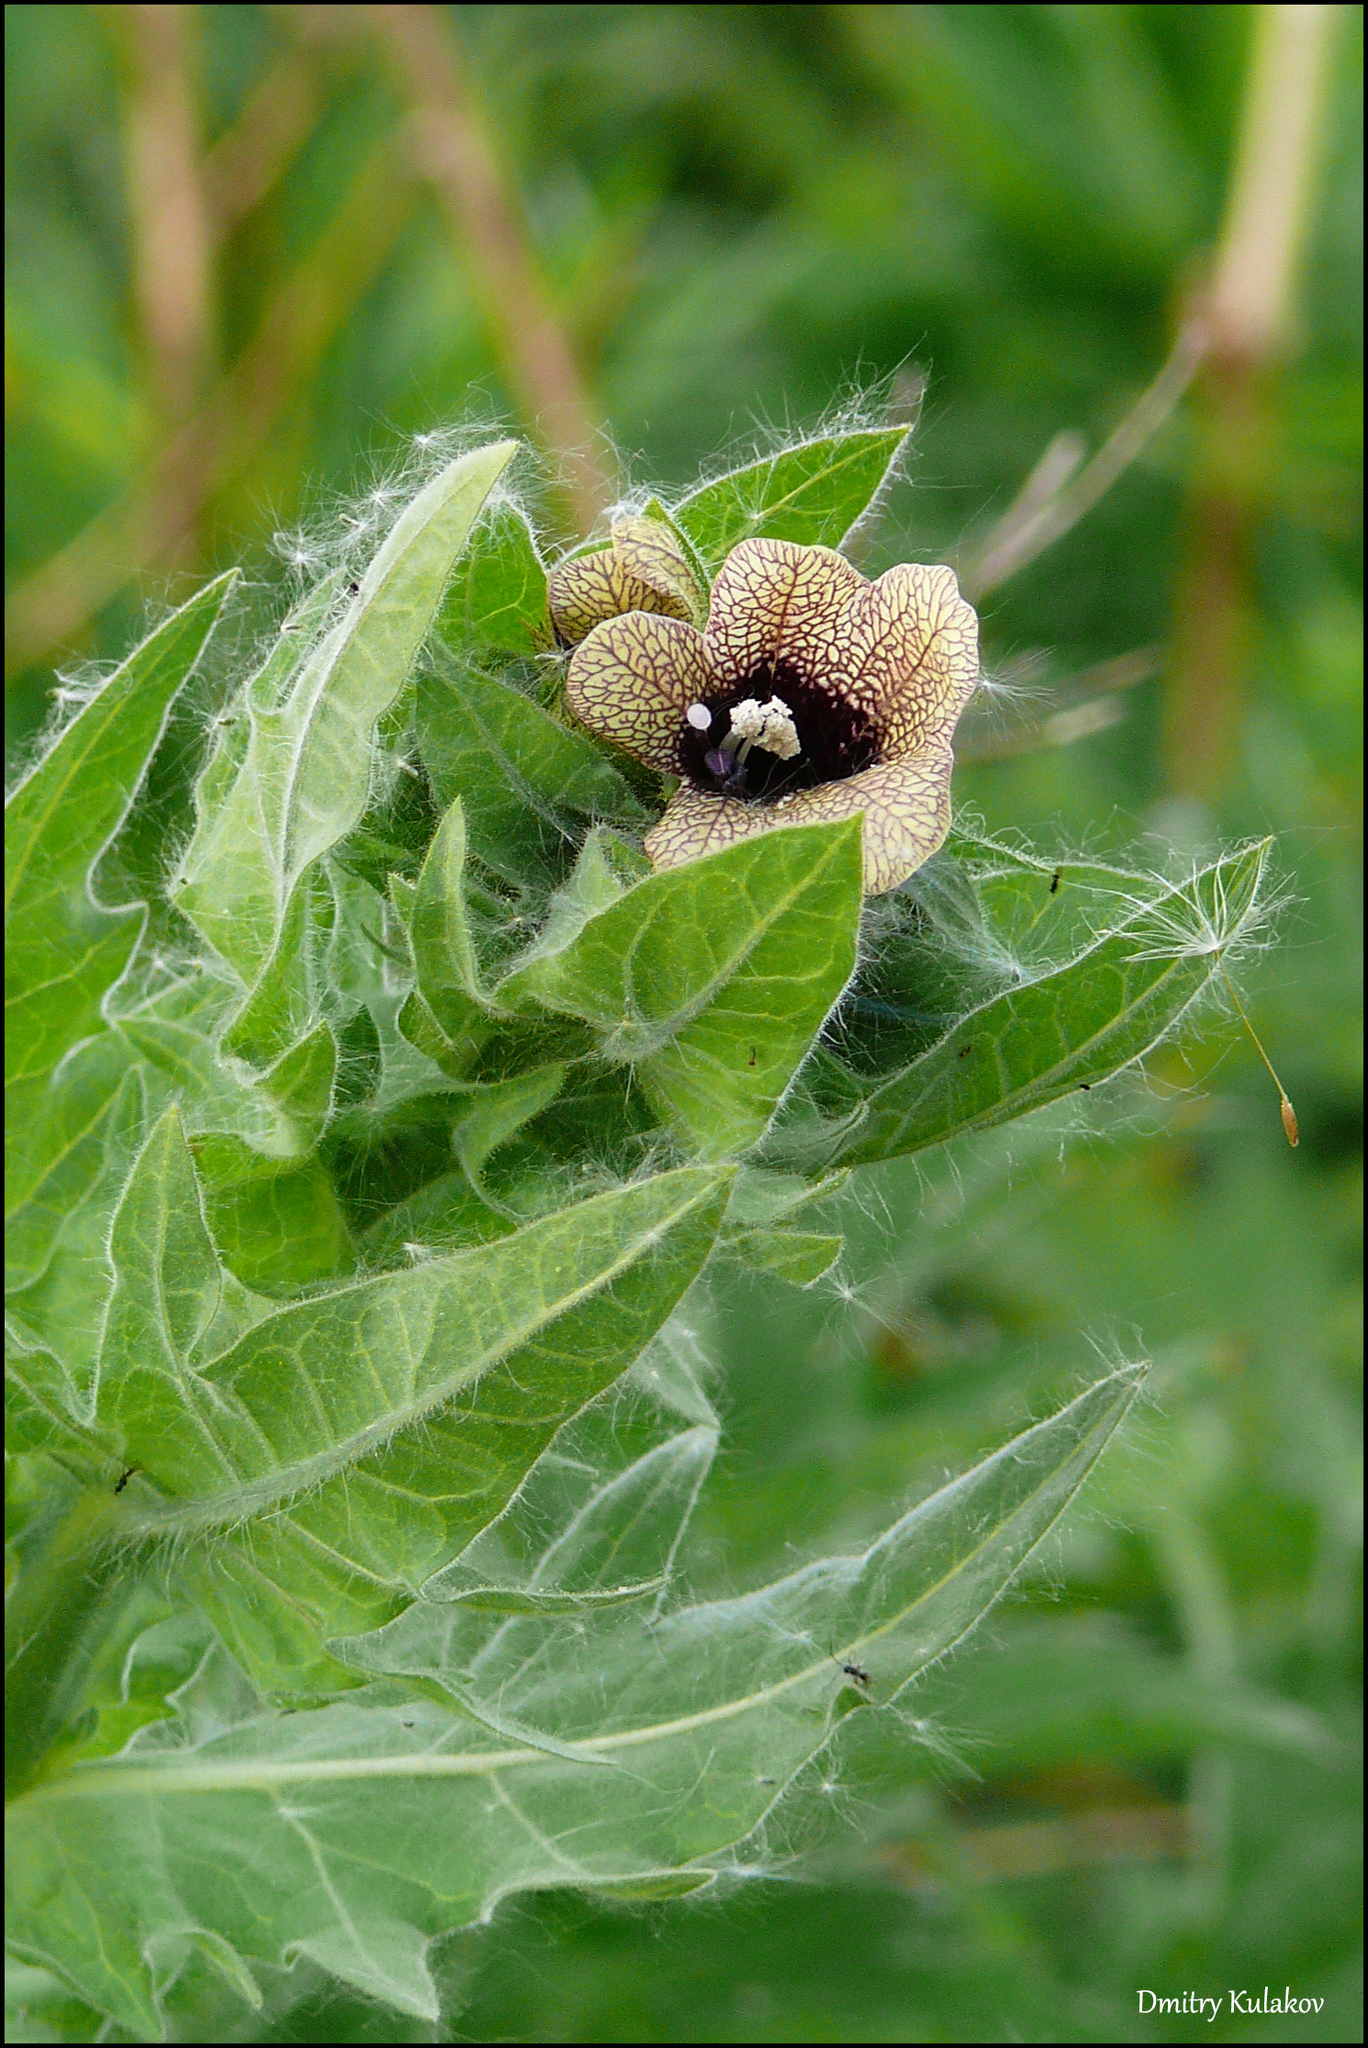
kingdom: Plantae
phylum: Tracheophyta
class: Magnoliopsida
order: Solanales
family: Solanaceae
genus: Hyoscyamus
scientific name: Hyoscyamus niger
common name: Henbane
